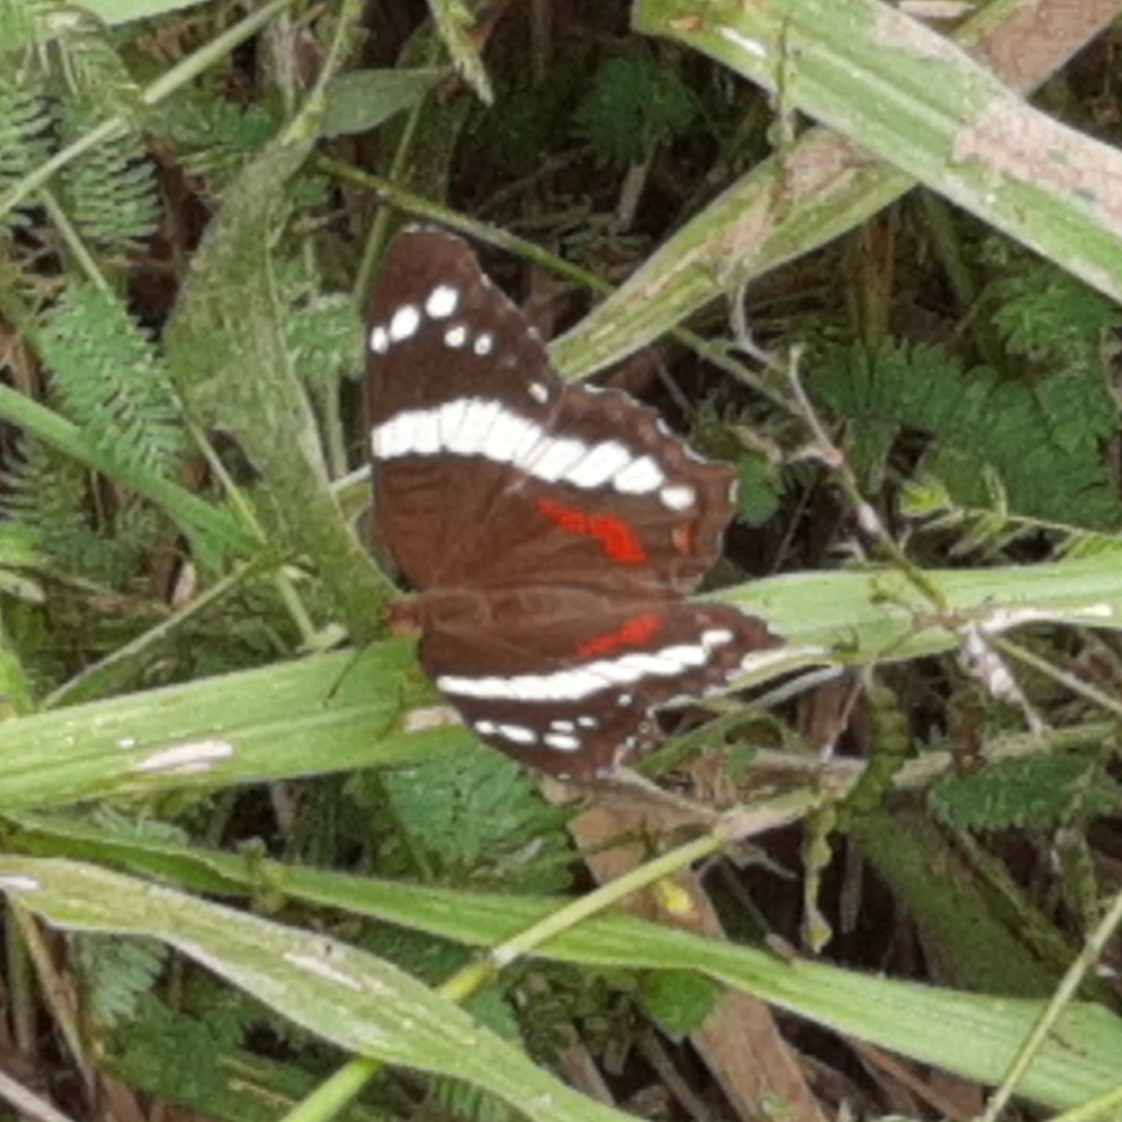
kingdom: Animalia
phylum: Arthropoda
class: Insecta
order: Lepidoptera
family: Nymphalidae
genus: Anartia
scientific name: Anartia fatima
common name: Banded peacock
